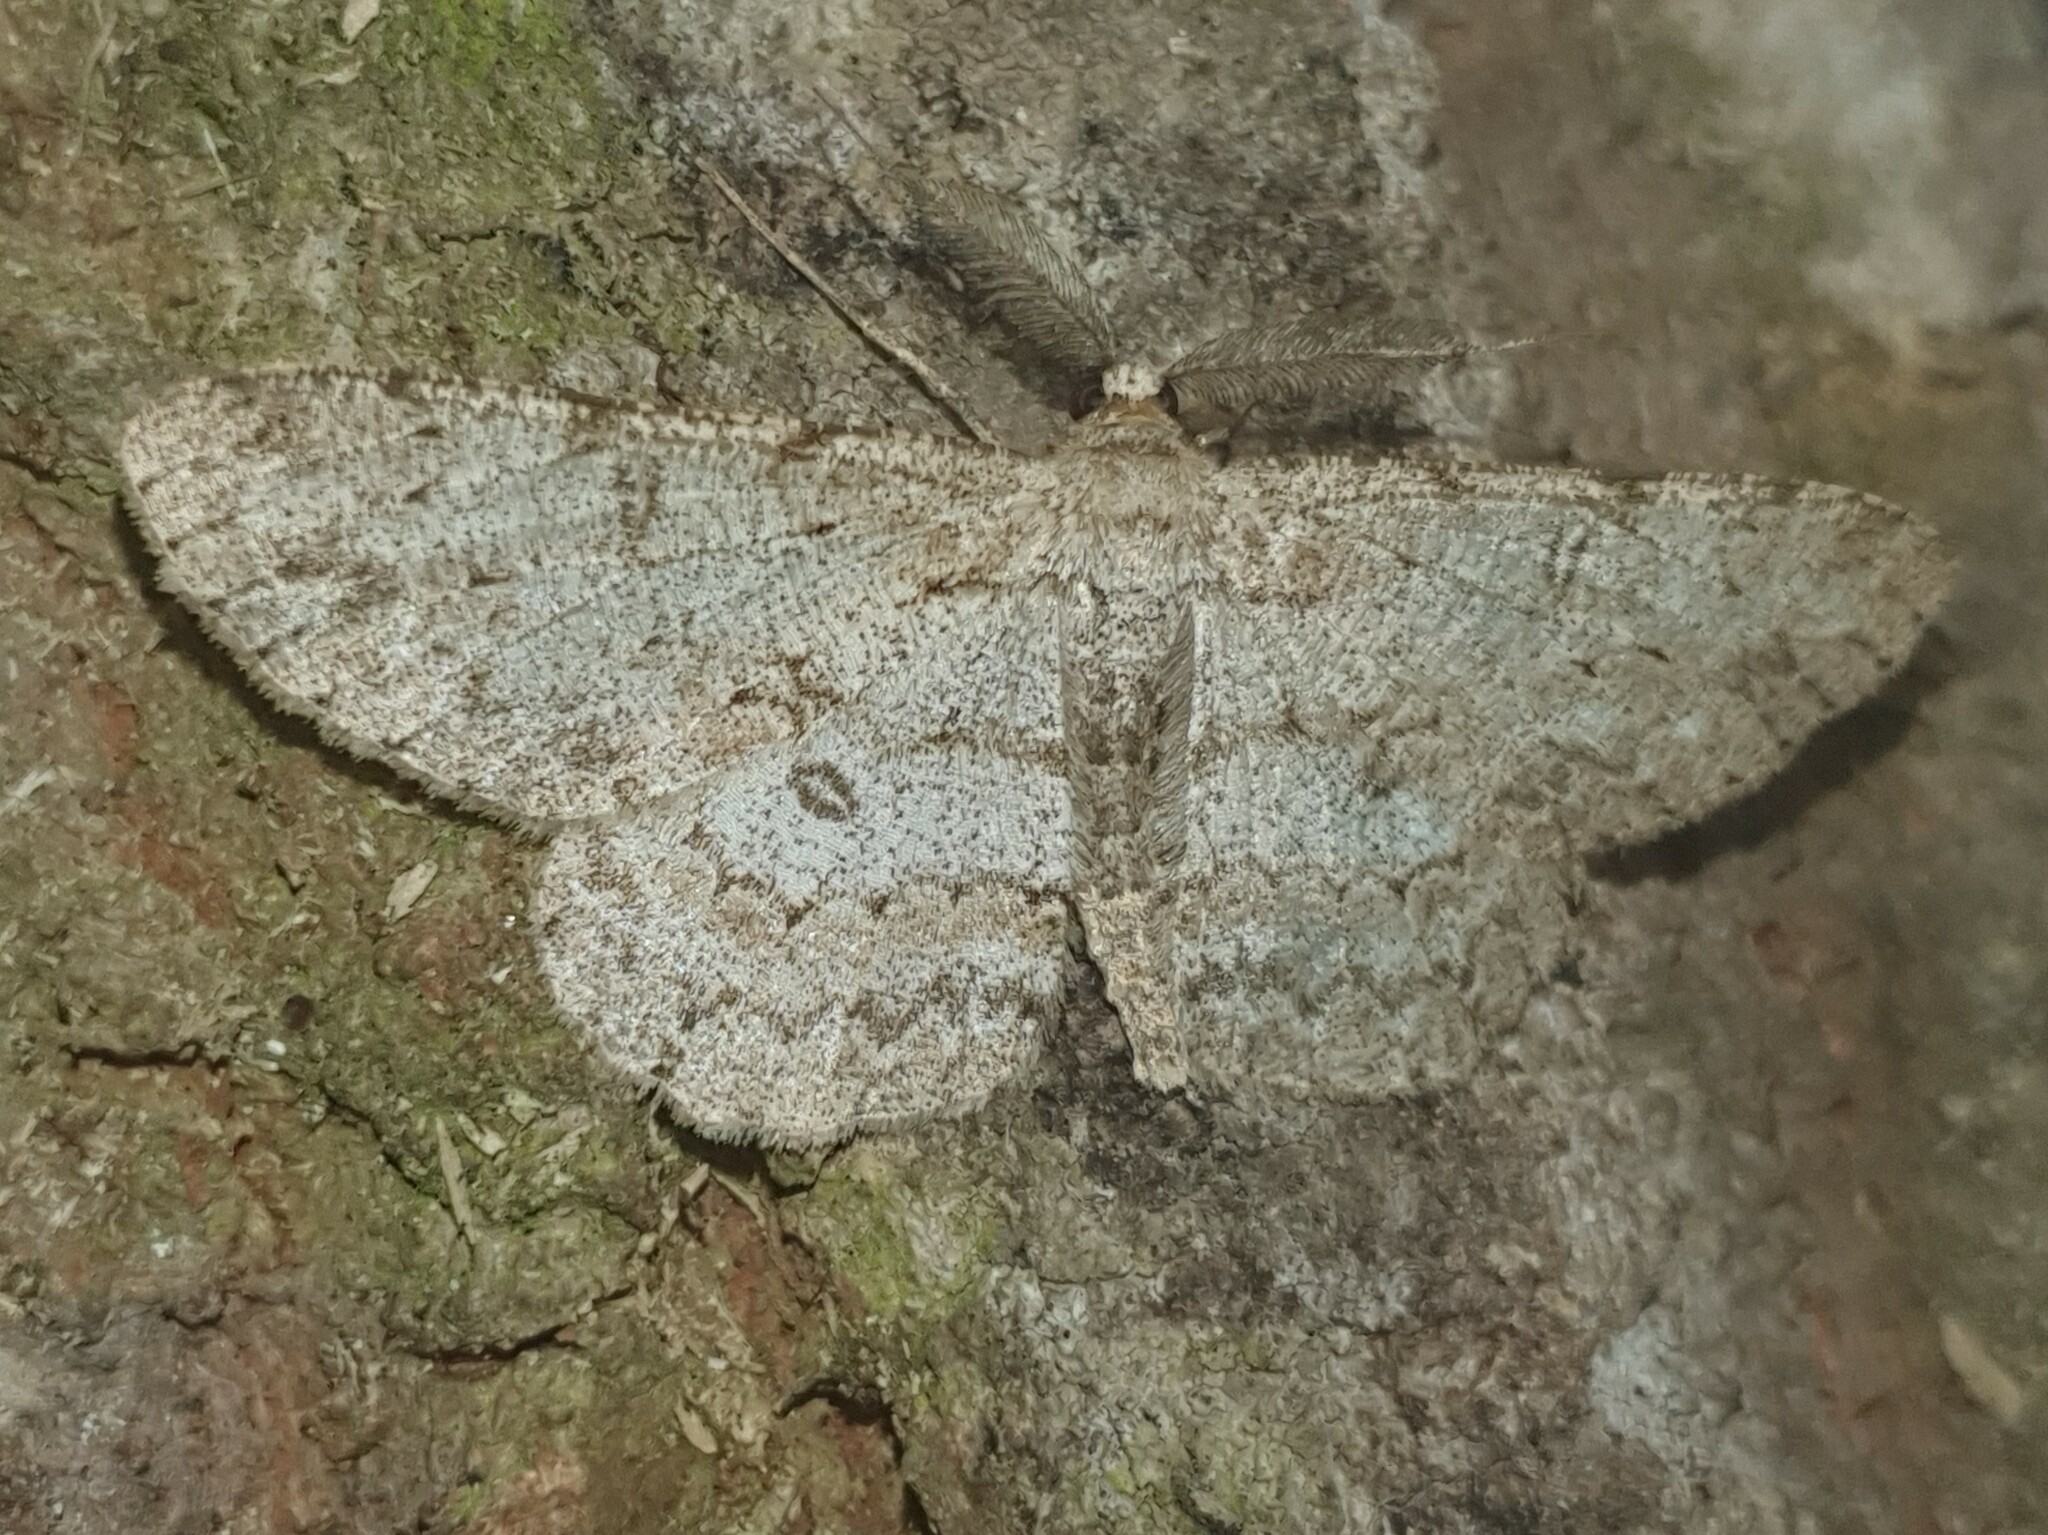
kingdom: Animalia
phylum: Arthropoda
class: Insecta
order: Lepidoptera
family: Geometridae
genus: Hypomecis
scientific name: Hypomecis punctinalis
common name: Pale oak beauty
